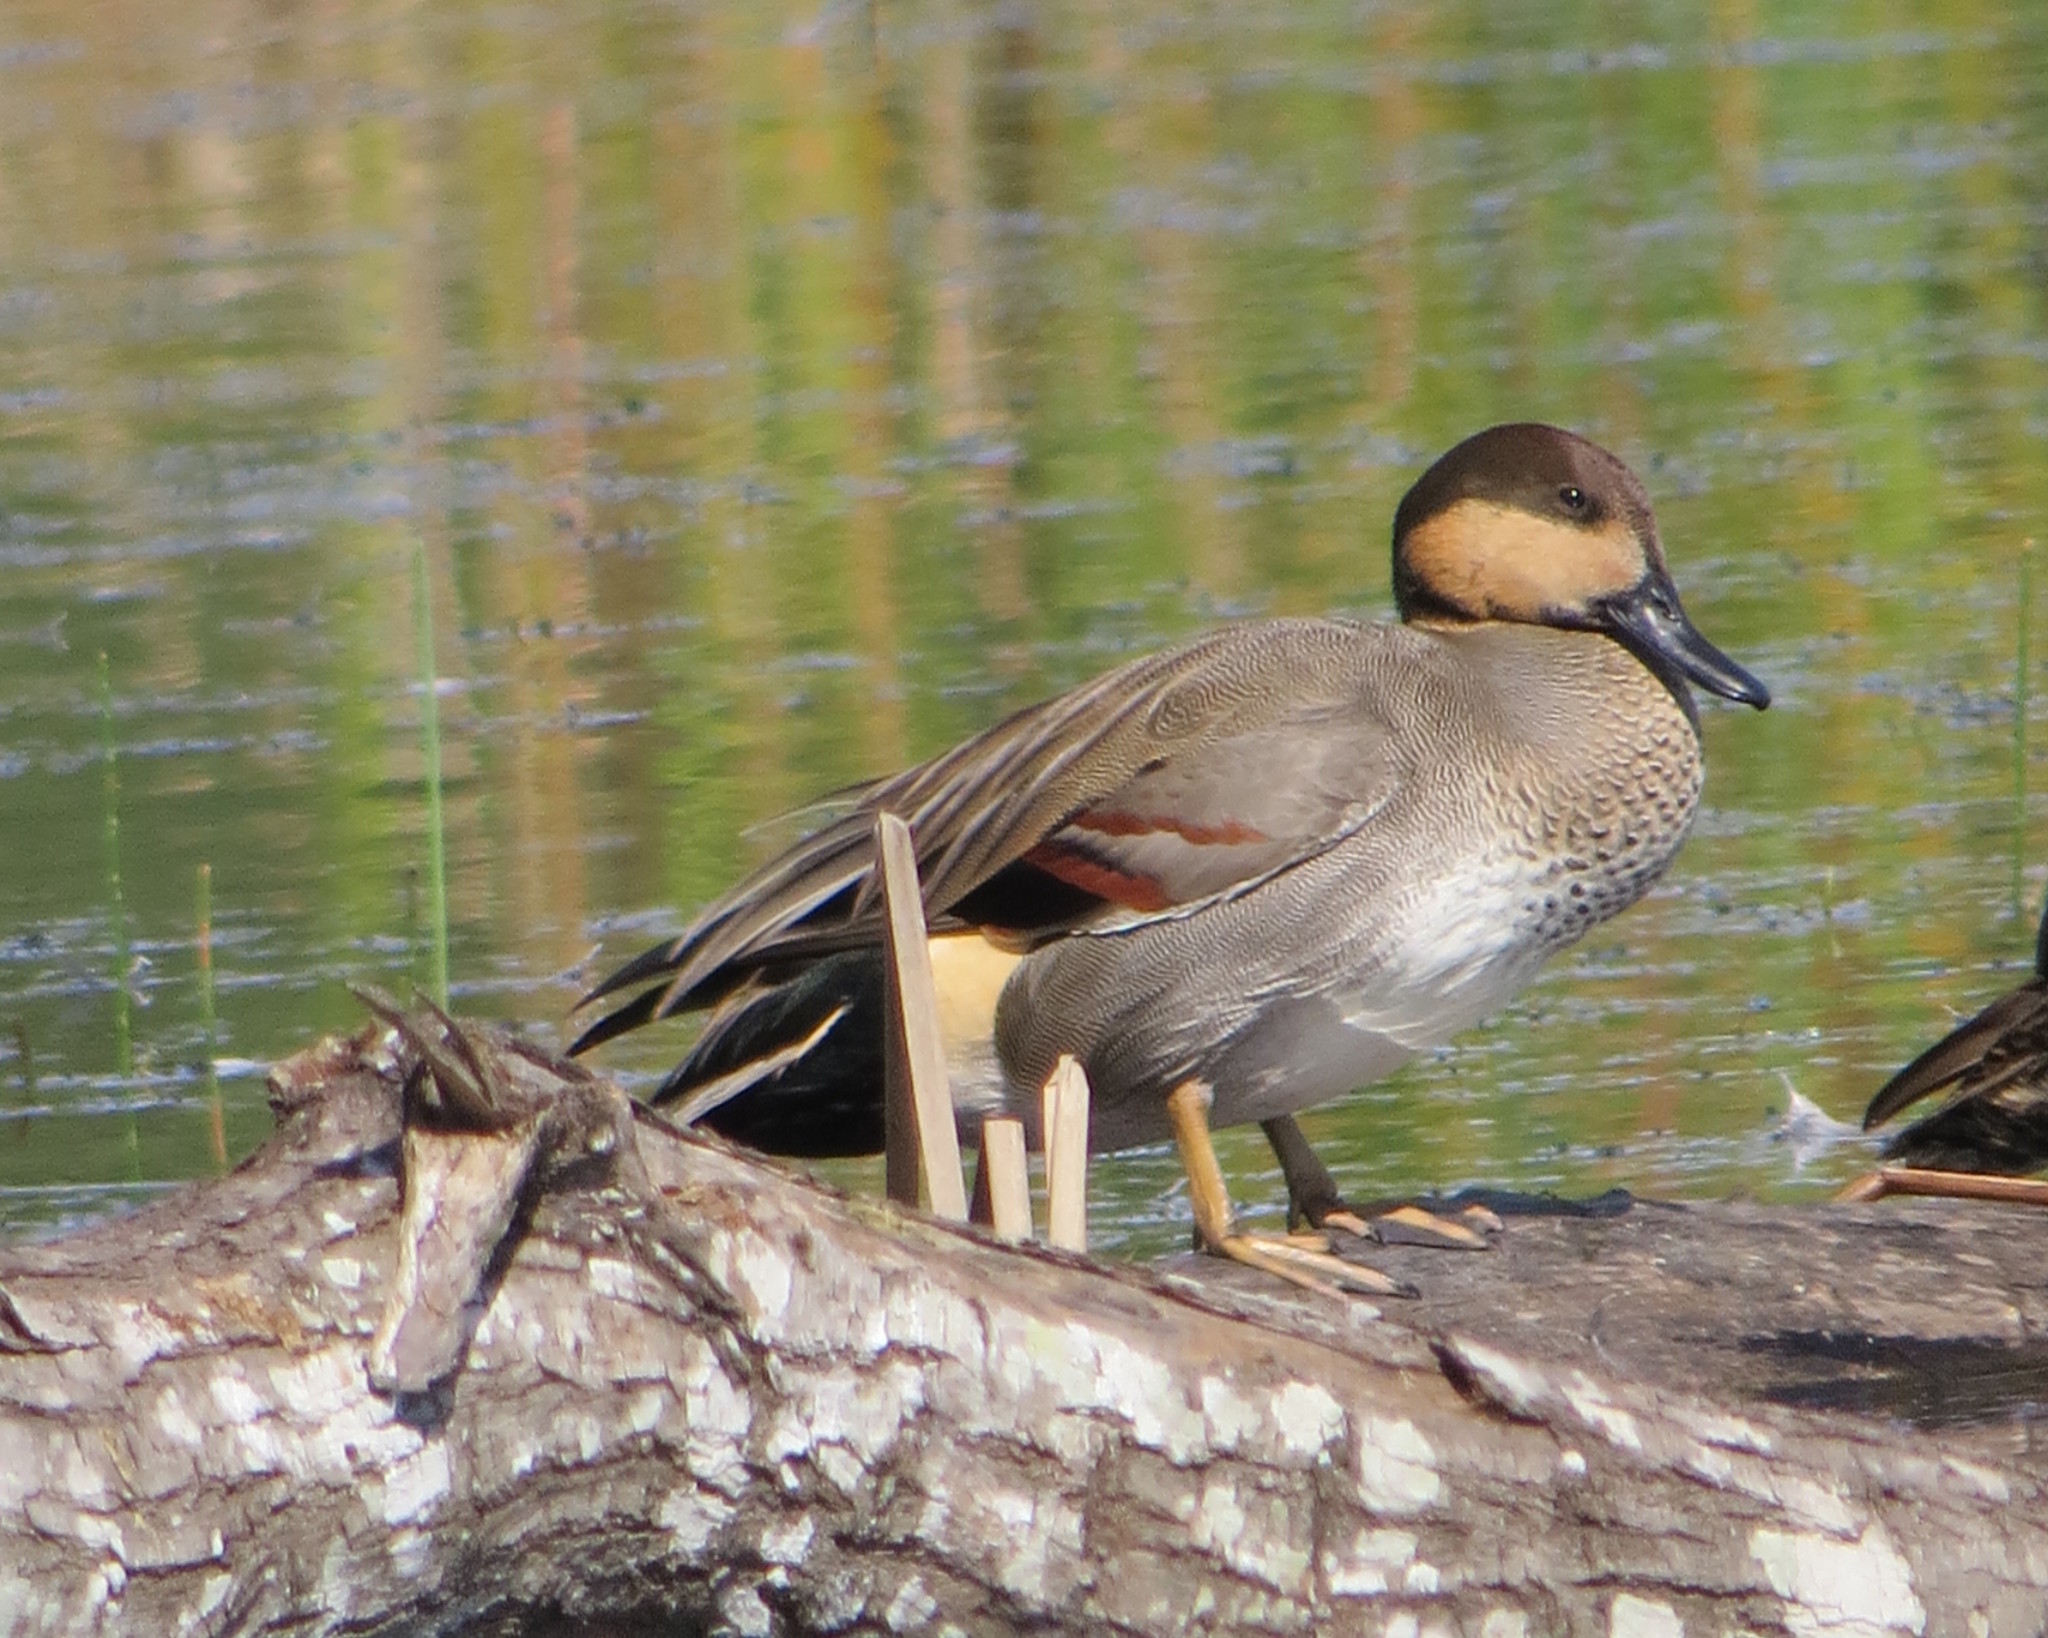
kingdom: Animalia
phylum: Chordata
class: Aves
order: Anseriformes
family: Anatidae
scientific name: Anatidae
